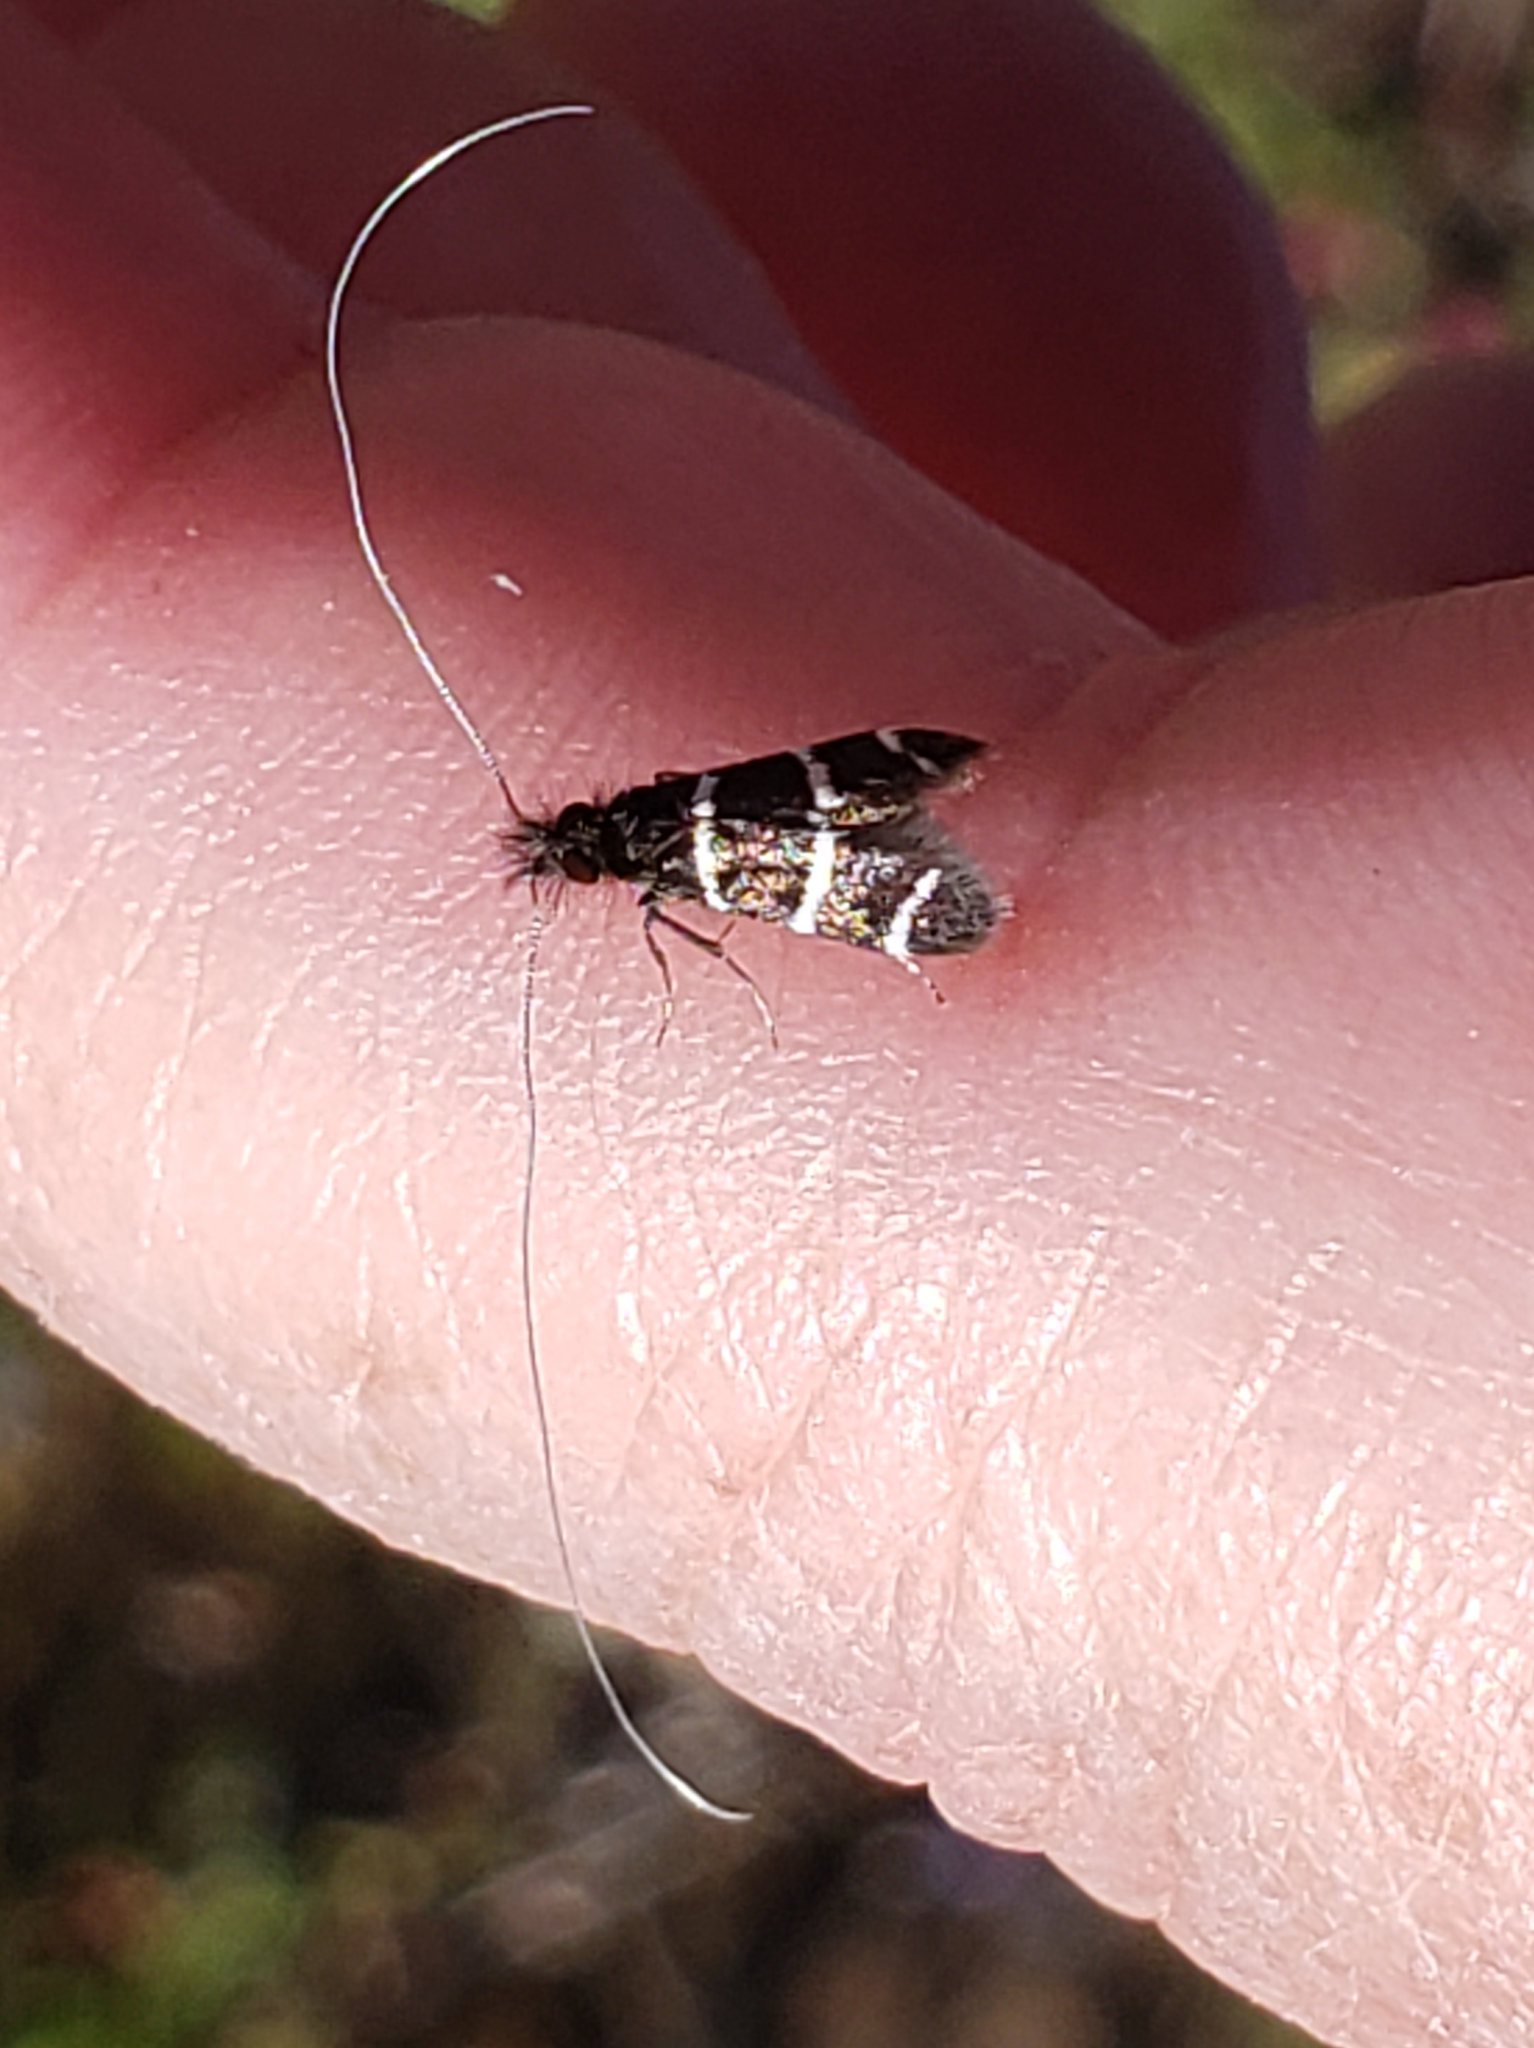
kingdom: Animalia
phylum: Arthropoda
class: Insecta
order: Lepidoptera
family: Adelidae
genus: Adela
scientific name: Adela trigrapha
